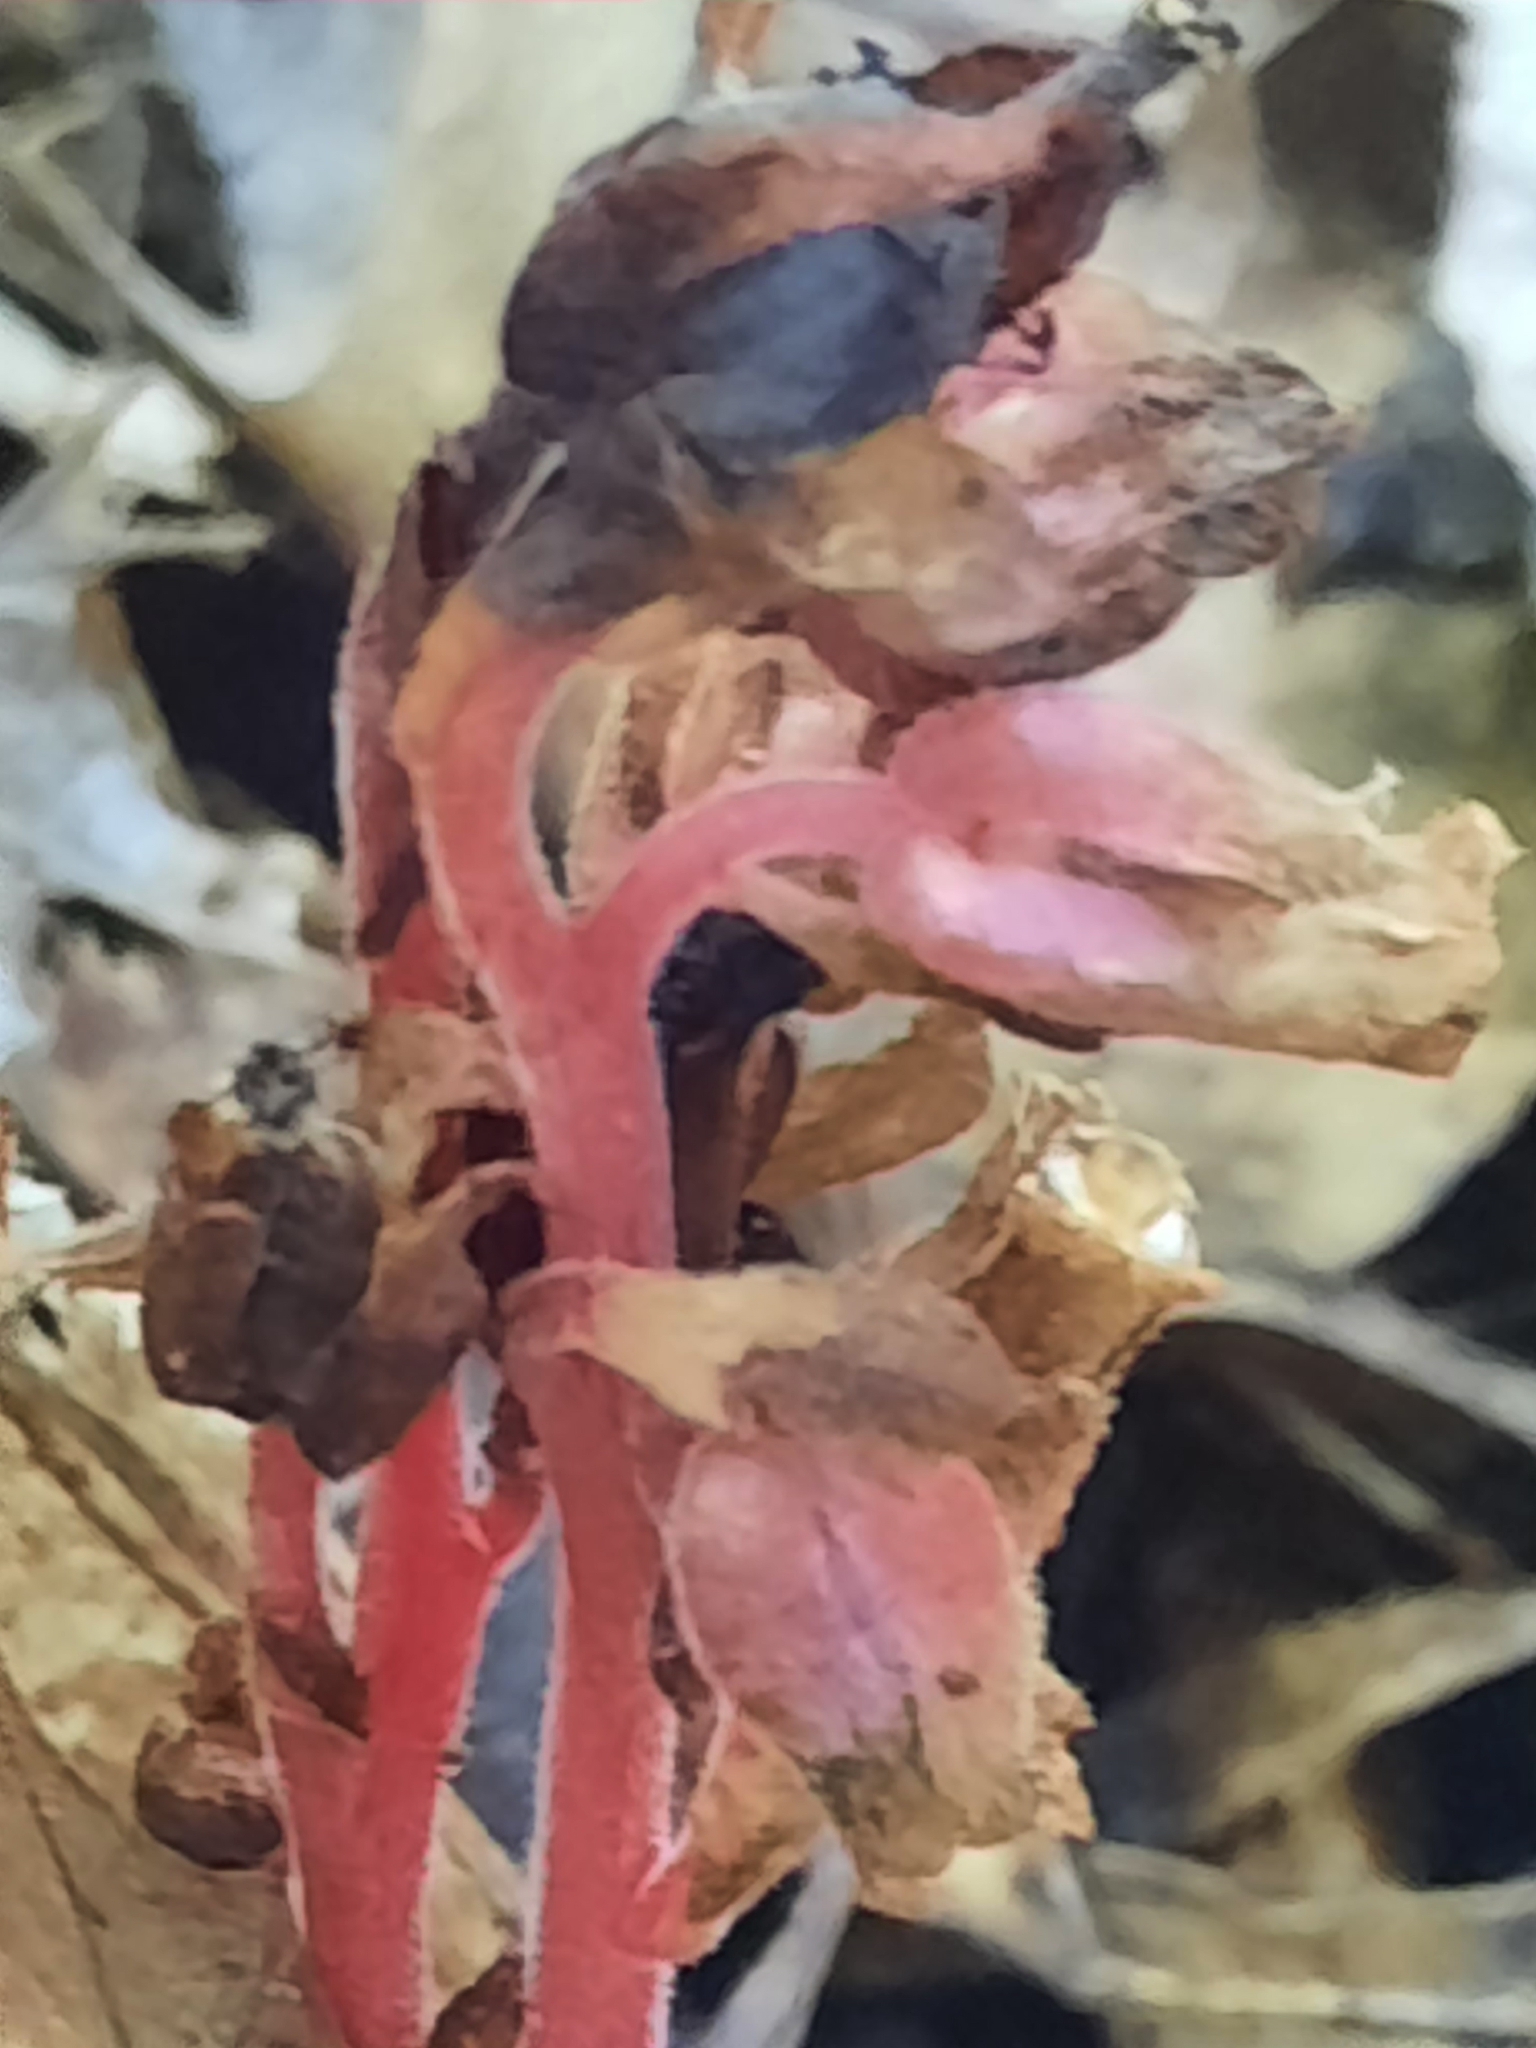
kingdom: Plantae
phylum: Tracheophyta
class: Magnoliopsida
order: Ericales
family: Ericaceae
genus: Hypopitys
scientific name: Hypopitys monotropa
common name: Yellow bird's-nest
